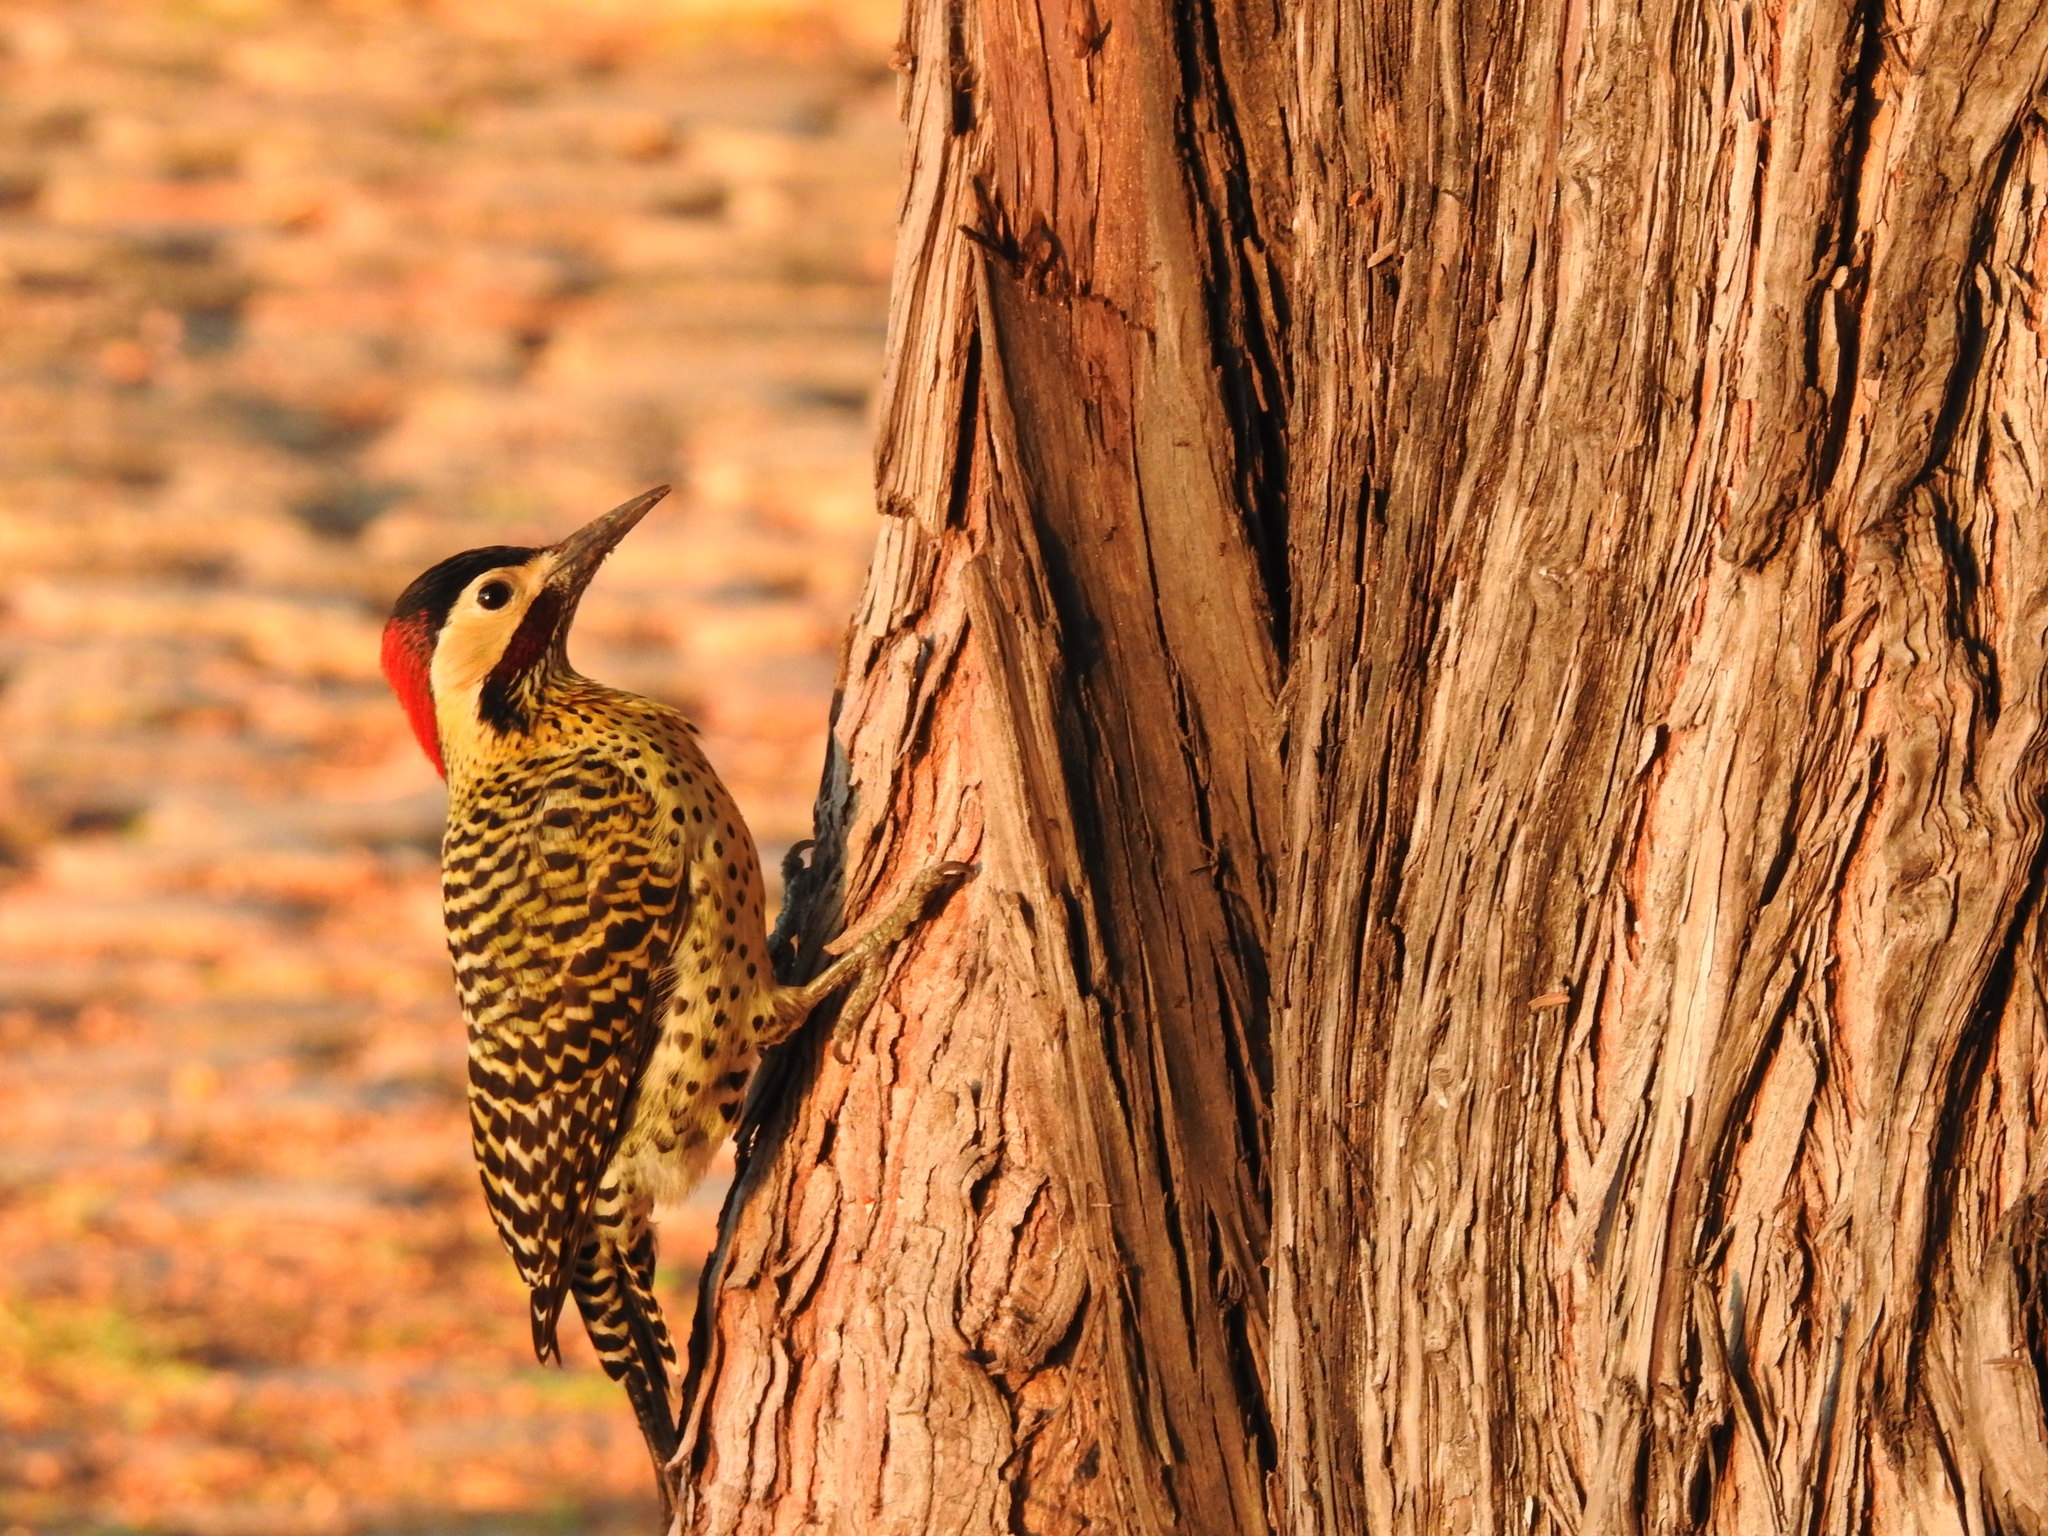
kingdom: Animalia
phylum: Chordata
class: Aves
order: Piciformes
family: Picidae
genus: Colaptes
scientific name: Colaptes melanochloros
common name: Green-barred woodpecker
